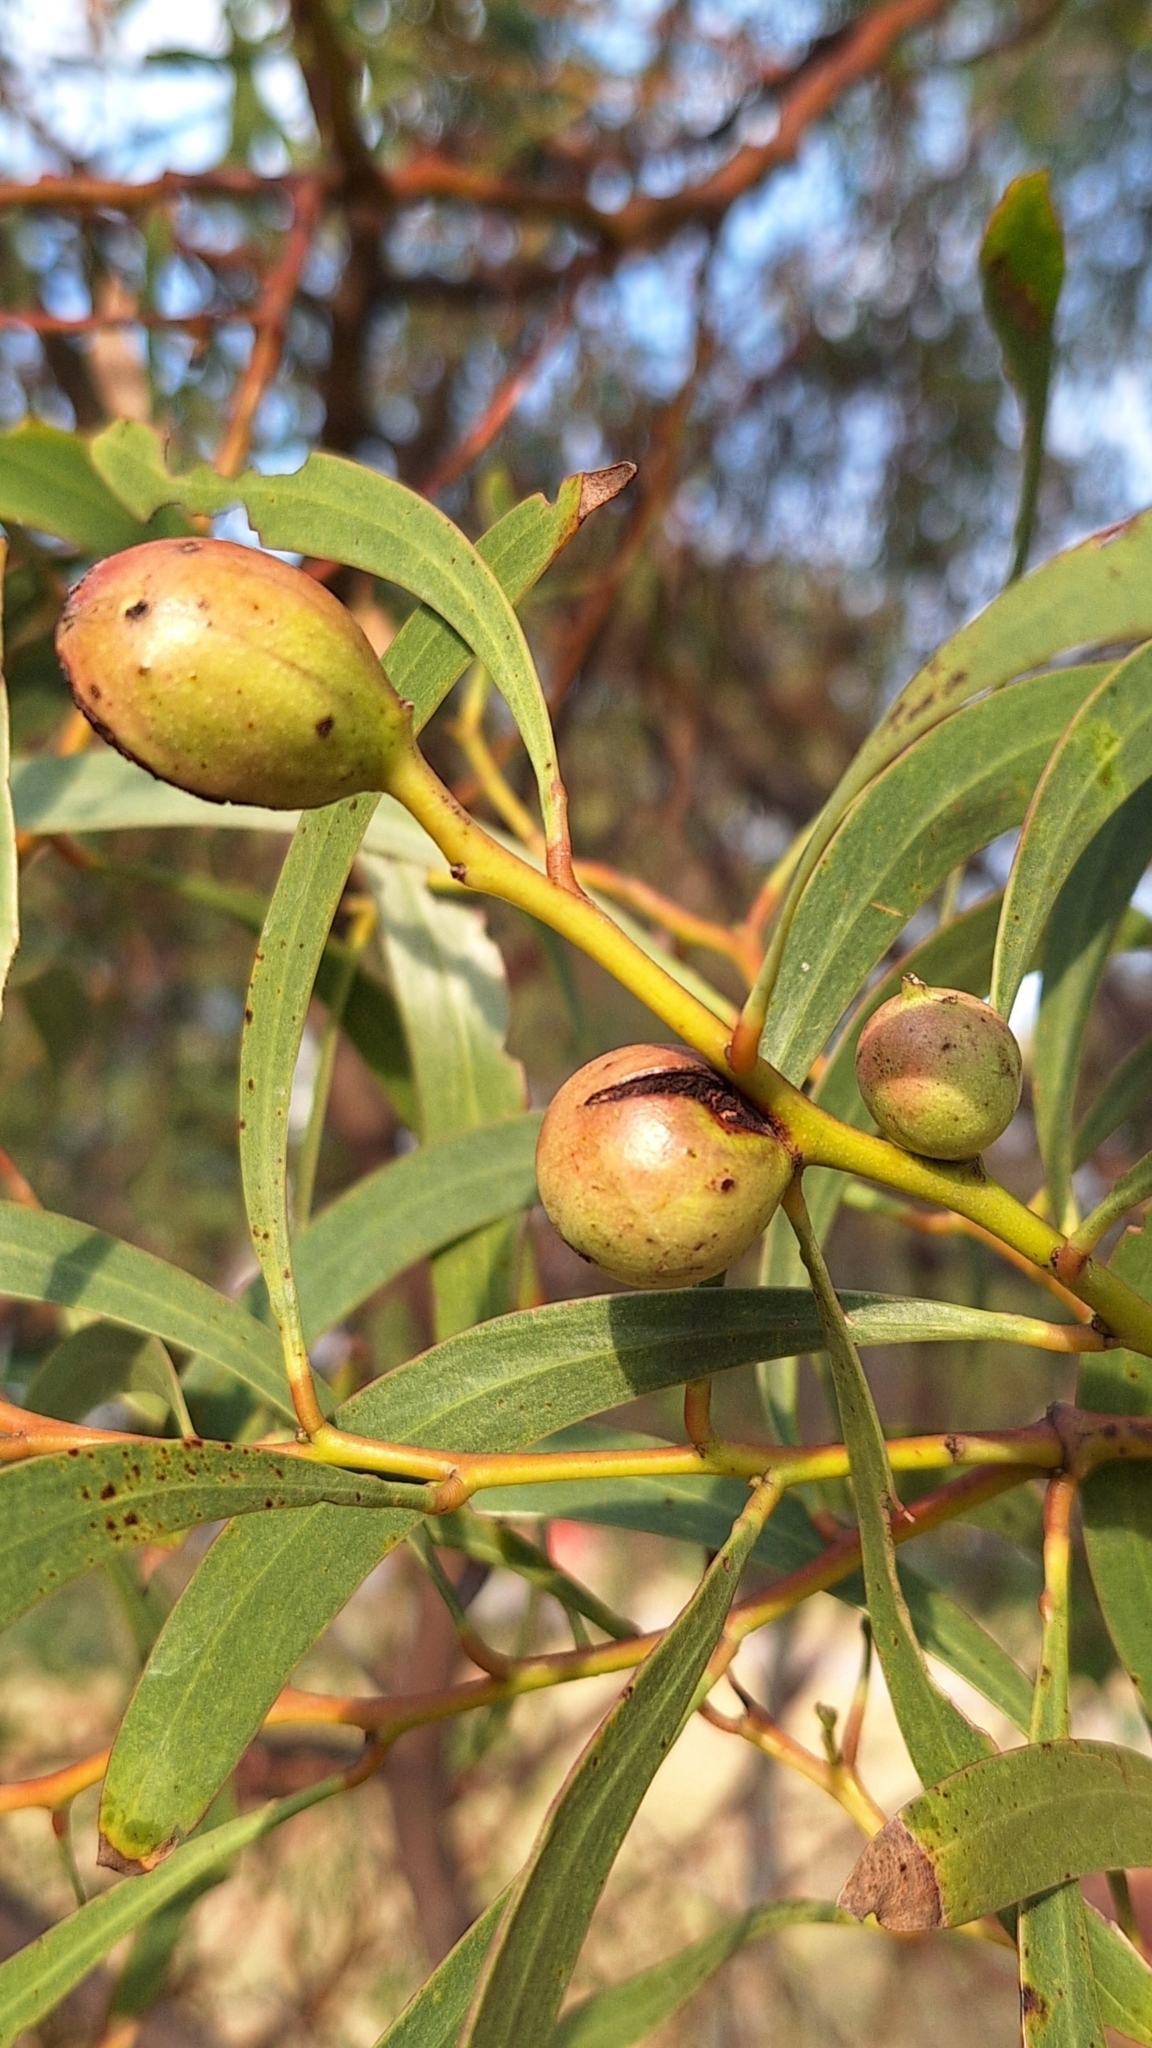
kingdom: Animalia
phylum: Arthropoda
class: Insecta
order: Hymenoptera
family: Pteromalidae
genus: Trichilogaster
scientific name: Trichilogaster signiventris
